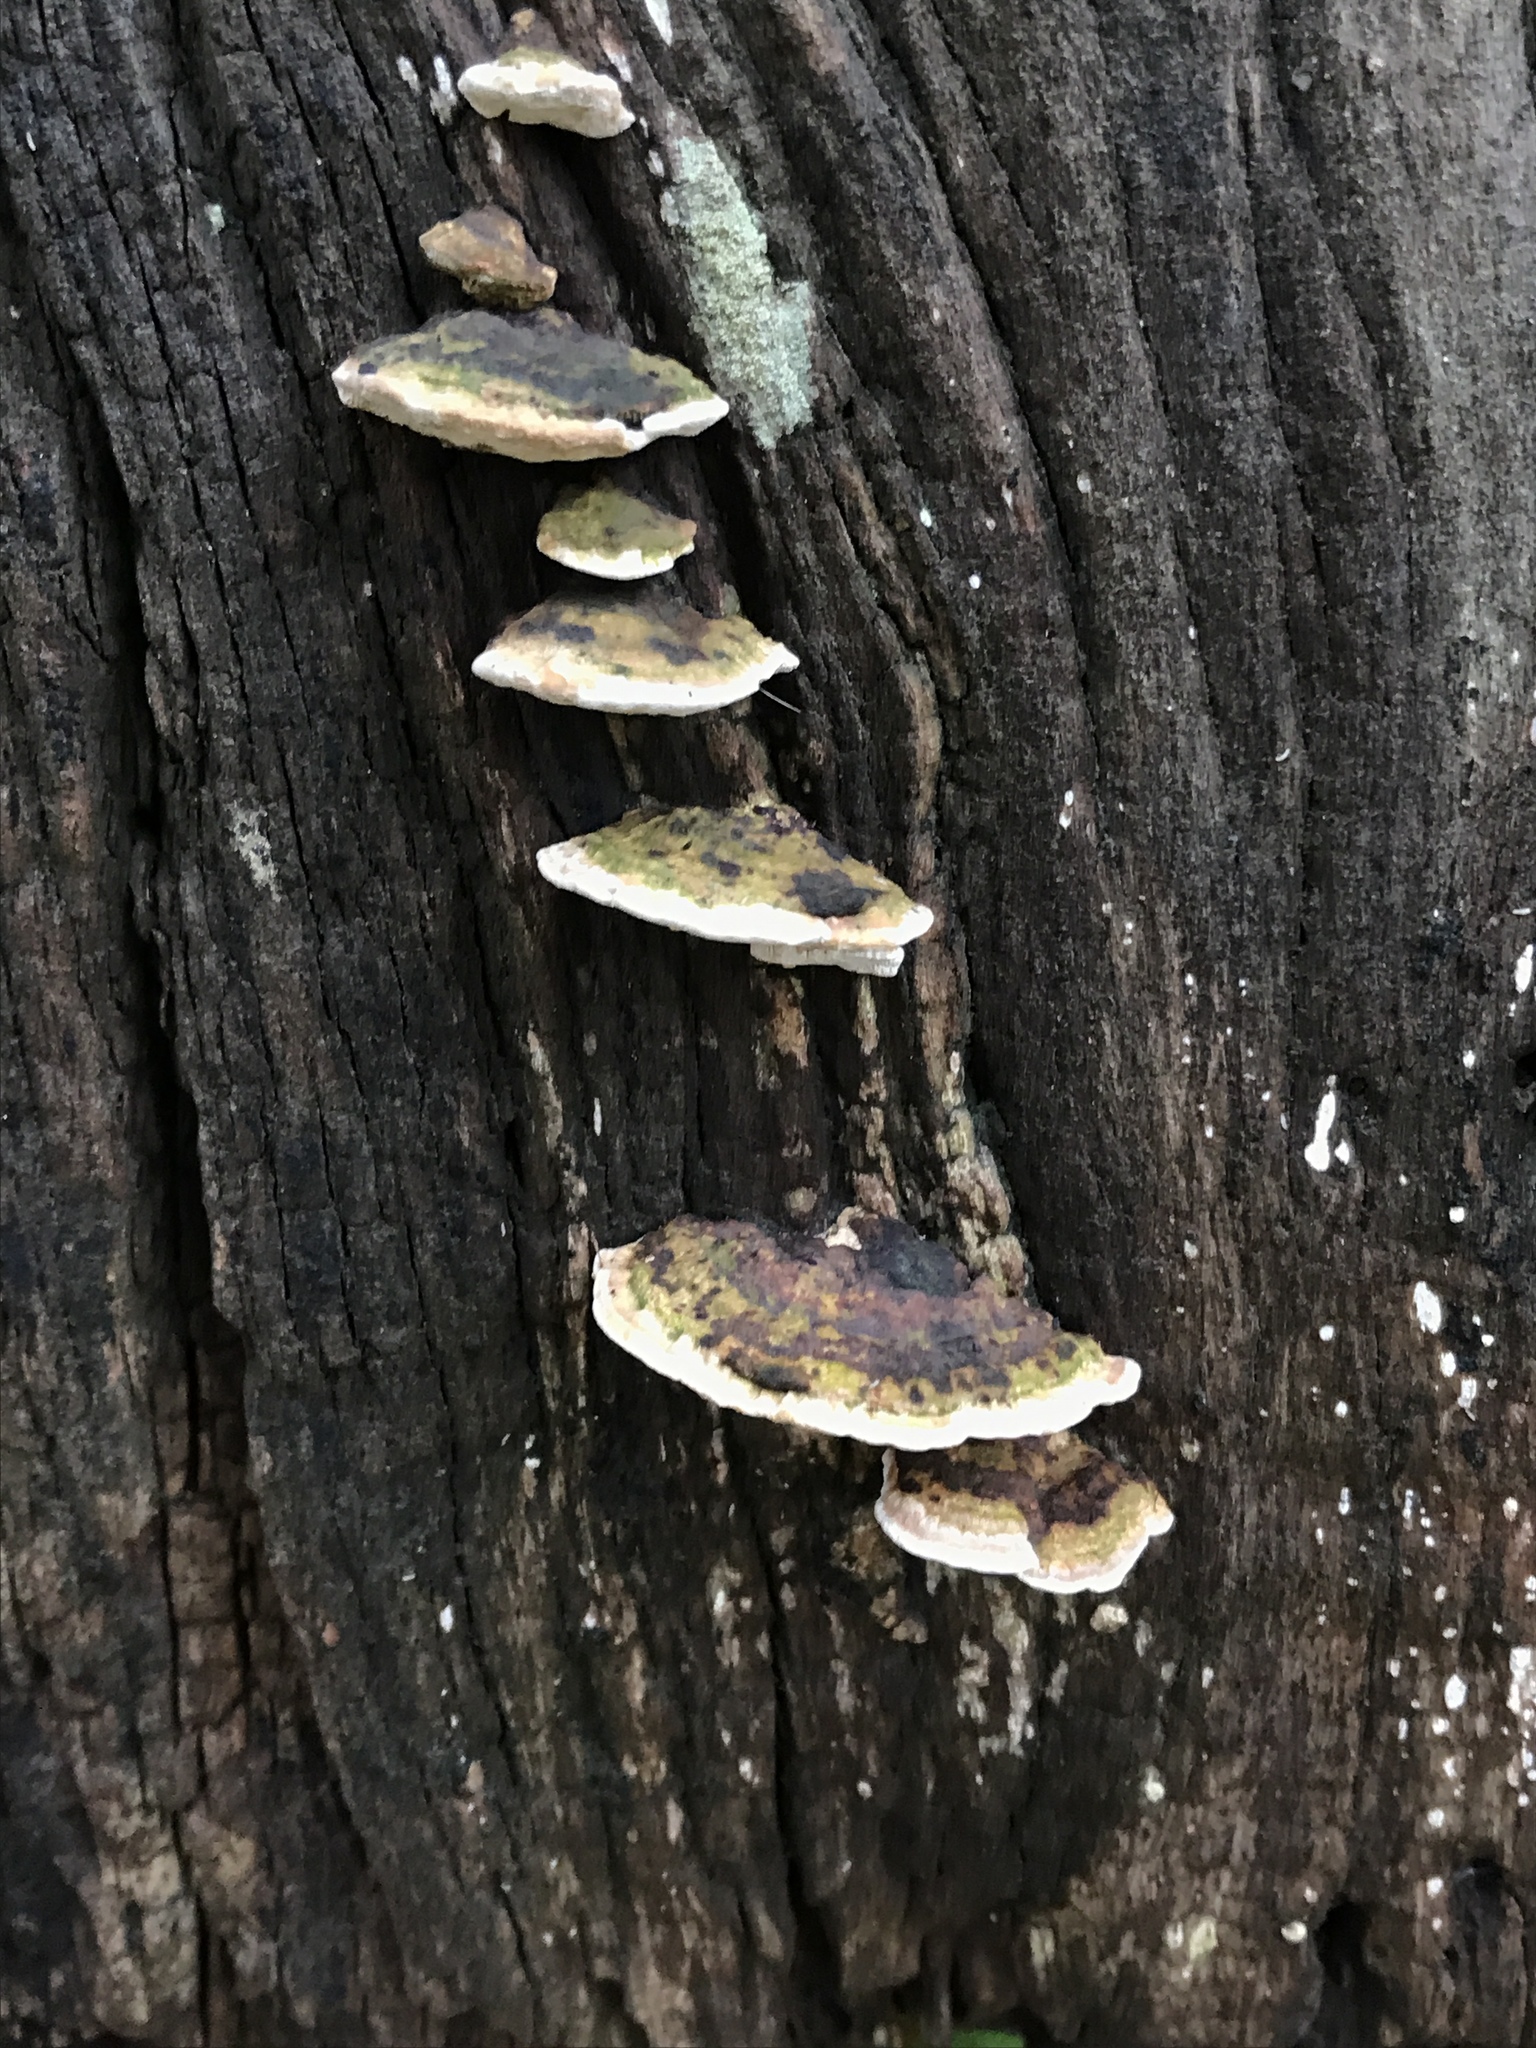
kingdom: Fungi
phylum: Basidiomycota
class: Agaricomycetes
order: Polyporales
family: Polyporaceae
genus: Perenniporia
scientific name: Perenniporia ohiensis
